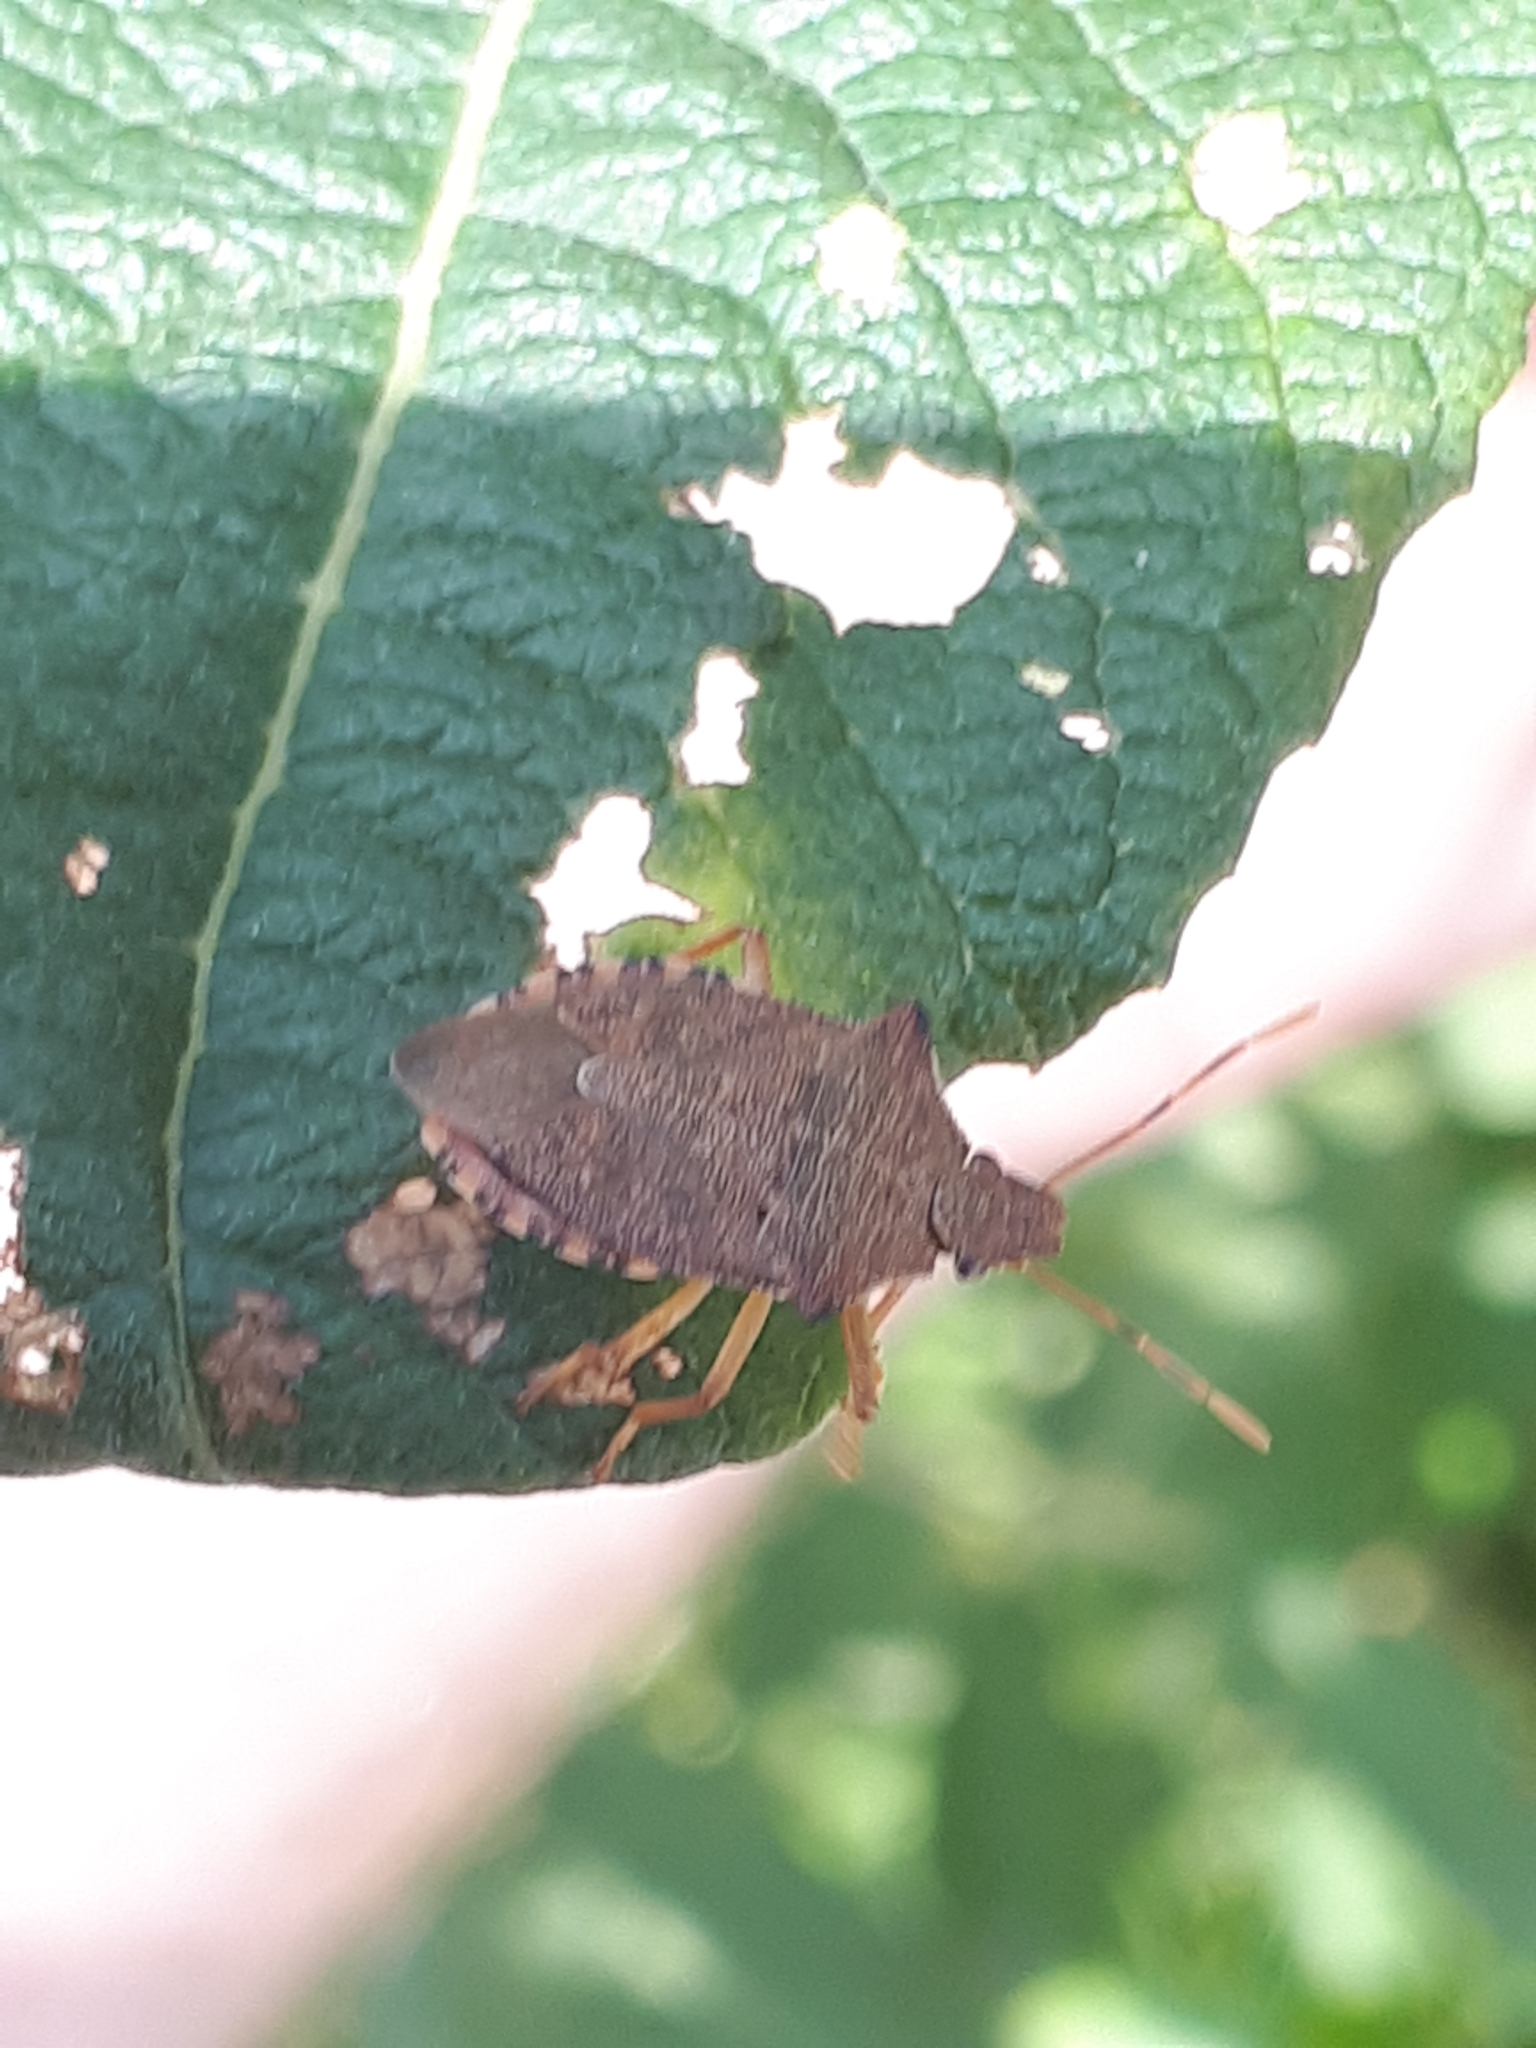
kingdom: Animalia
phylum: Arthropoda
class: Insecta
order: Hemiptera
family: Pentatomidae
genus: Arma
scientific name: Arma custos
